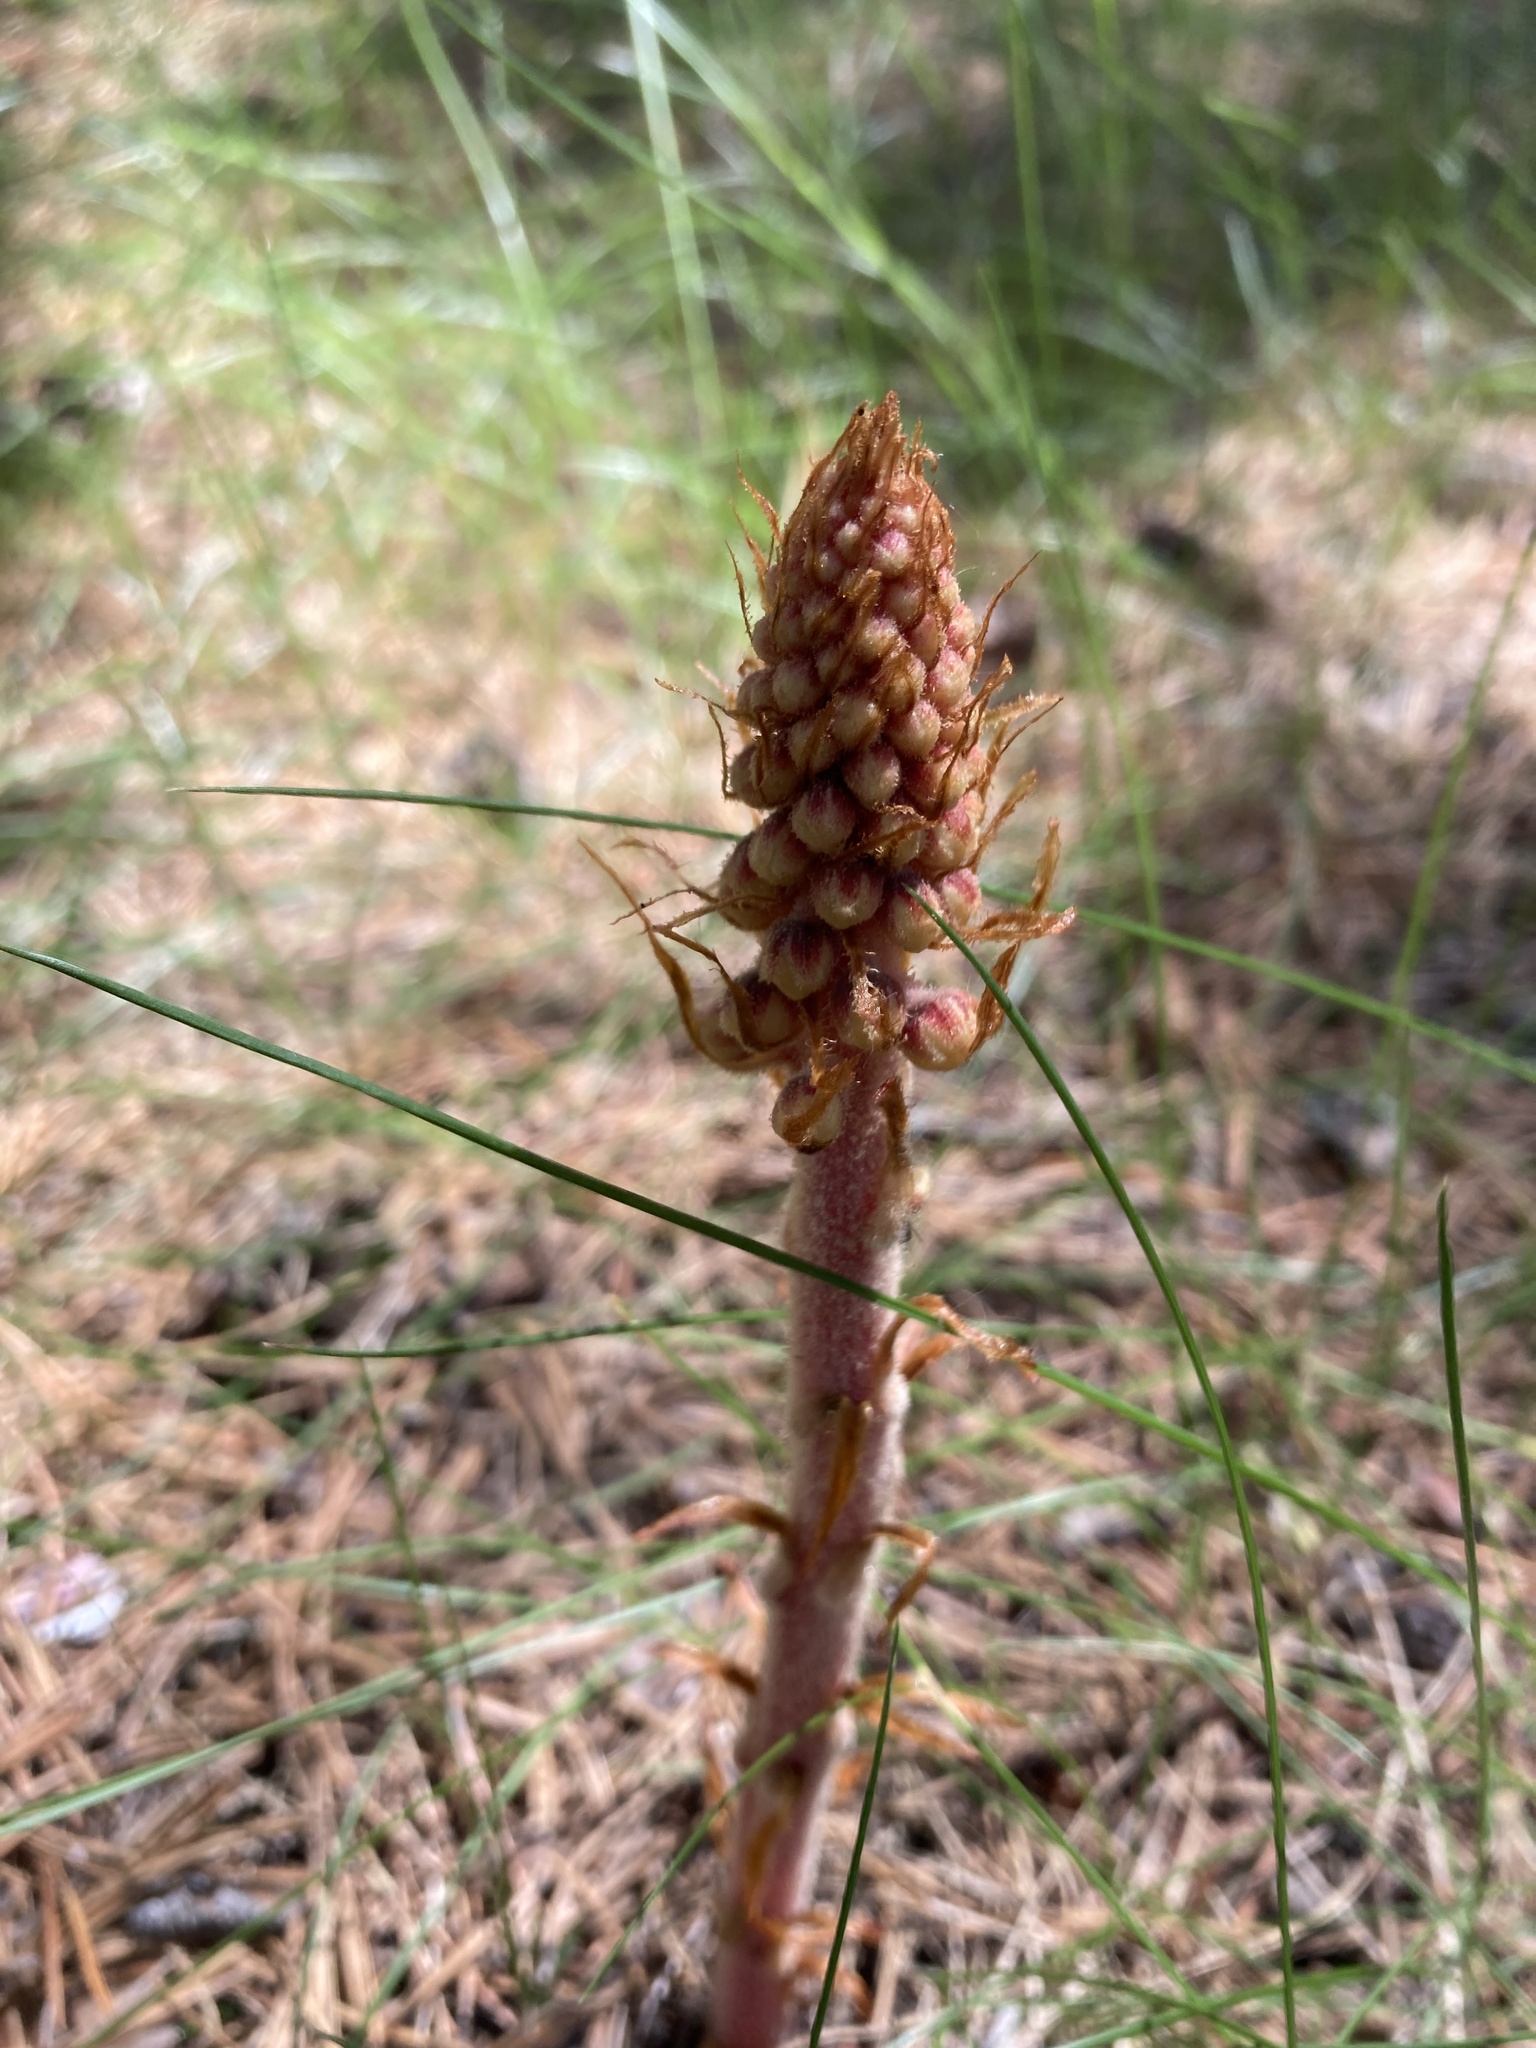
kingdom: Plantae
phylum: Tracheophyta
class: Magnoliopsida
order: Ericales
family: Ericaceae
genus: Pterospora
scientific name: Pterospora andromedea
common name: Giant bird's-nest
